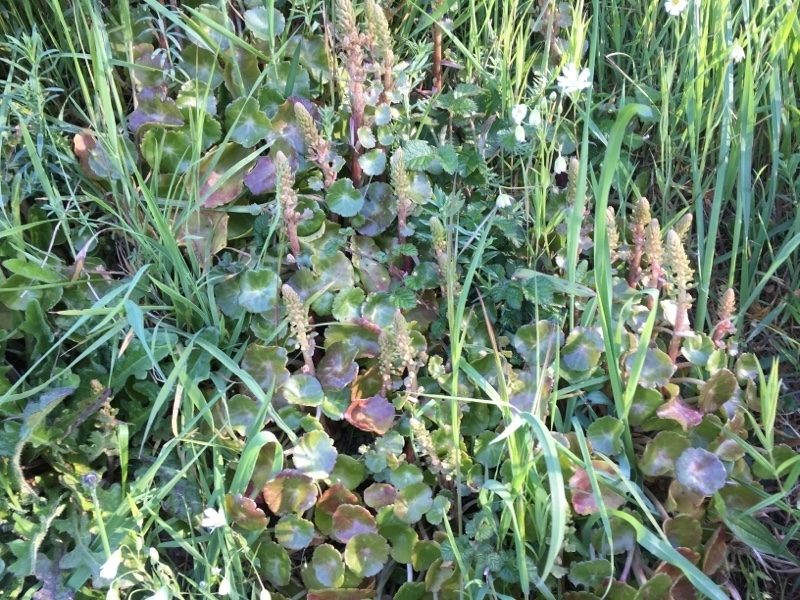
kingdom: Plantae
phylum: Tracheophyta
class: Magnoliopsida
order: Saxifragales
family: Crassulaceae
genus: Umbilicus
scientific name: Umbilicus rupestris
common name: Navelwort
